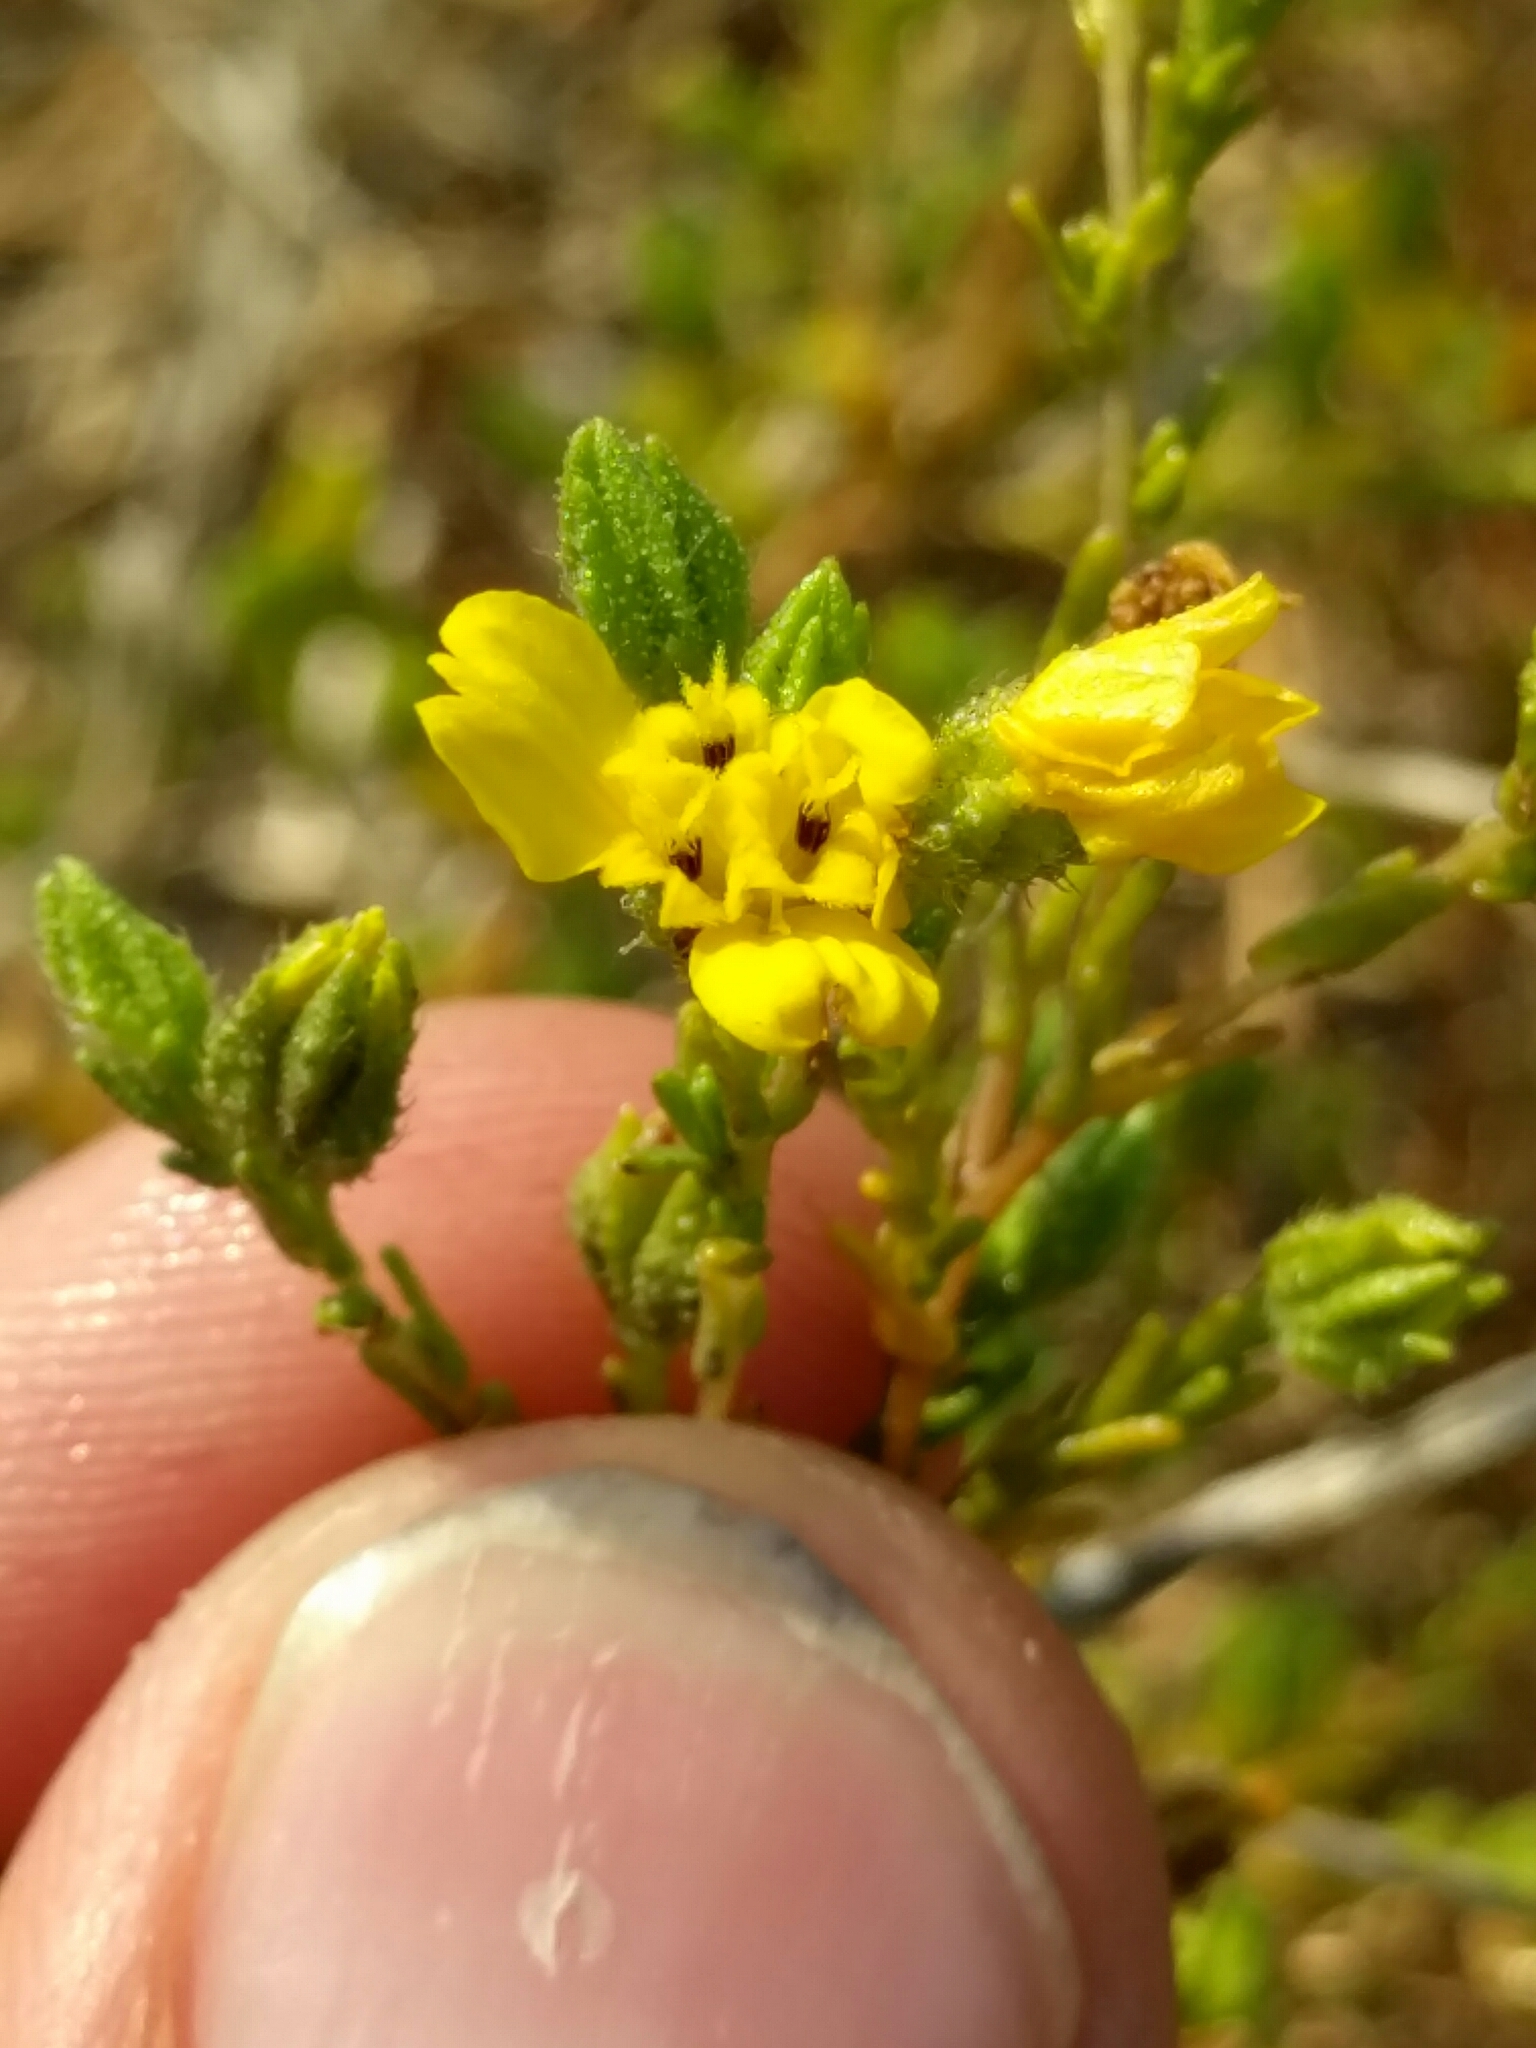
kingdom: Plantae
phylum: Tracheophyta
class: Magnoliopsida
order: Asterales
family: Asteraceae
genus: Deinandra
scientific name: Deinandra lobbii
